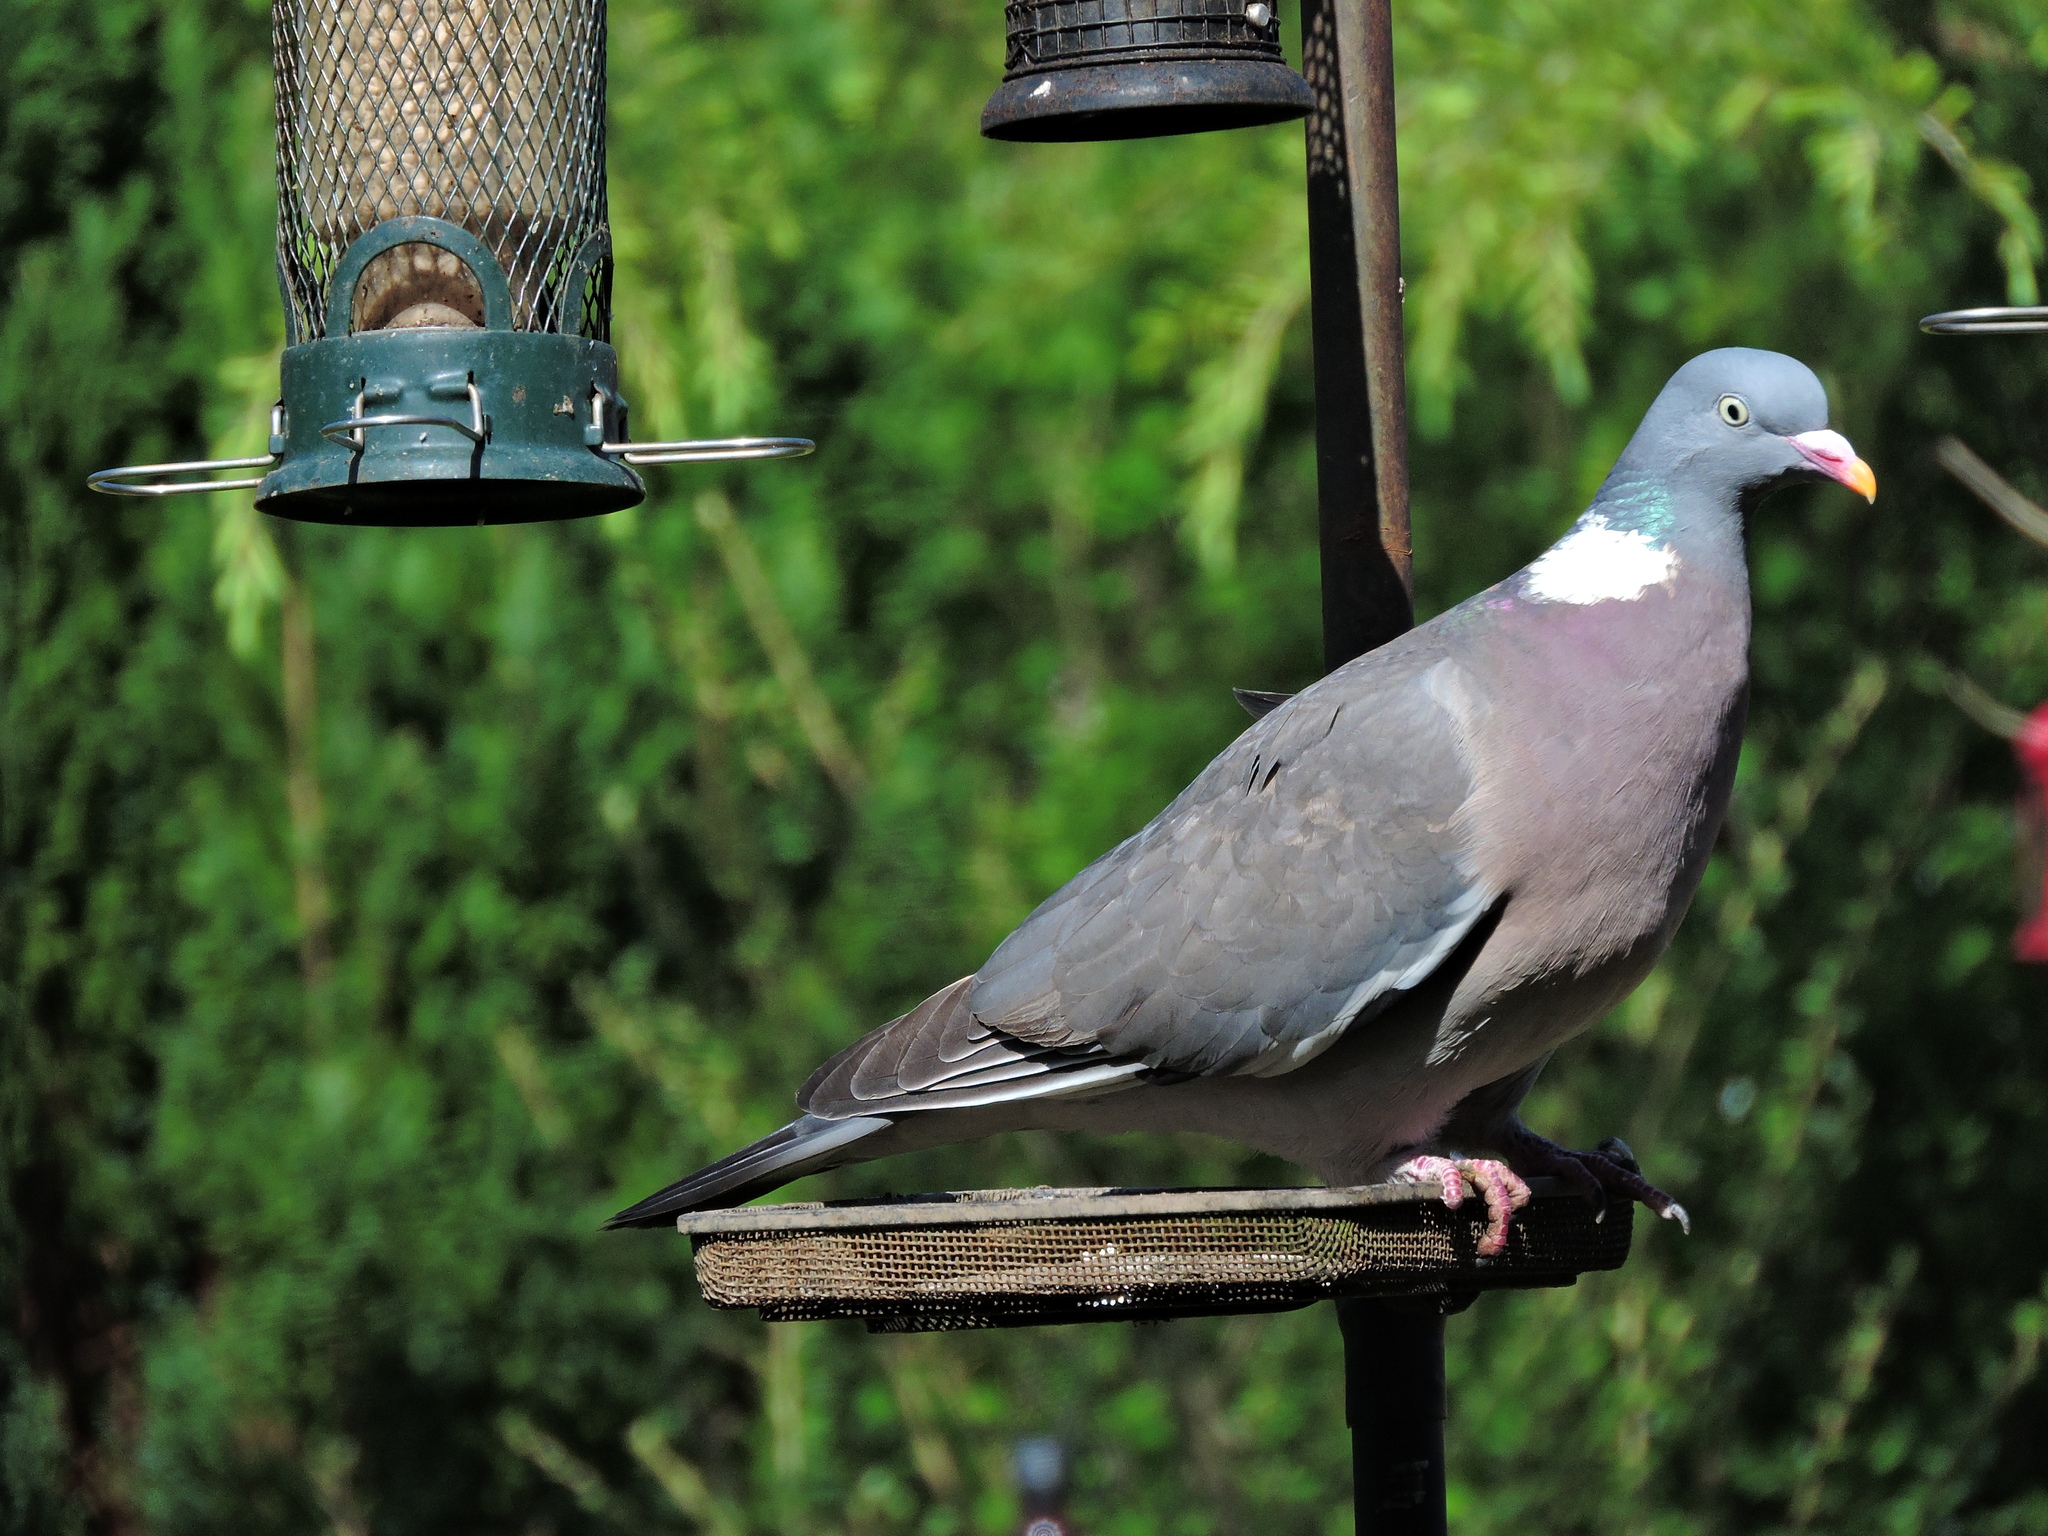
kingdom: Animalia
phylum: Chordata
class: Aves
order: Columbiformes
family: Columbidae
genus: Columba
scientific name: Columba palumbus
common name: Common wood pigeon
